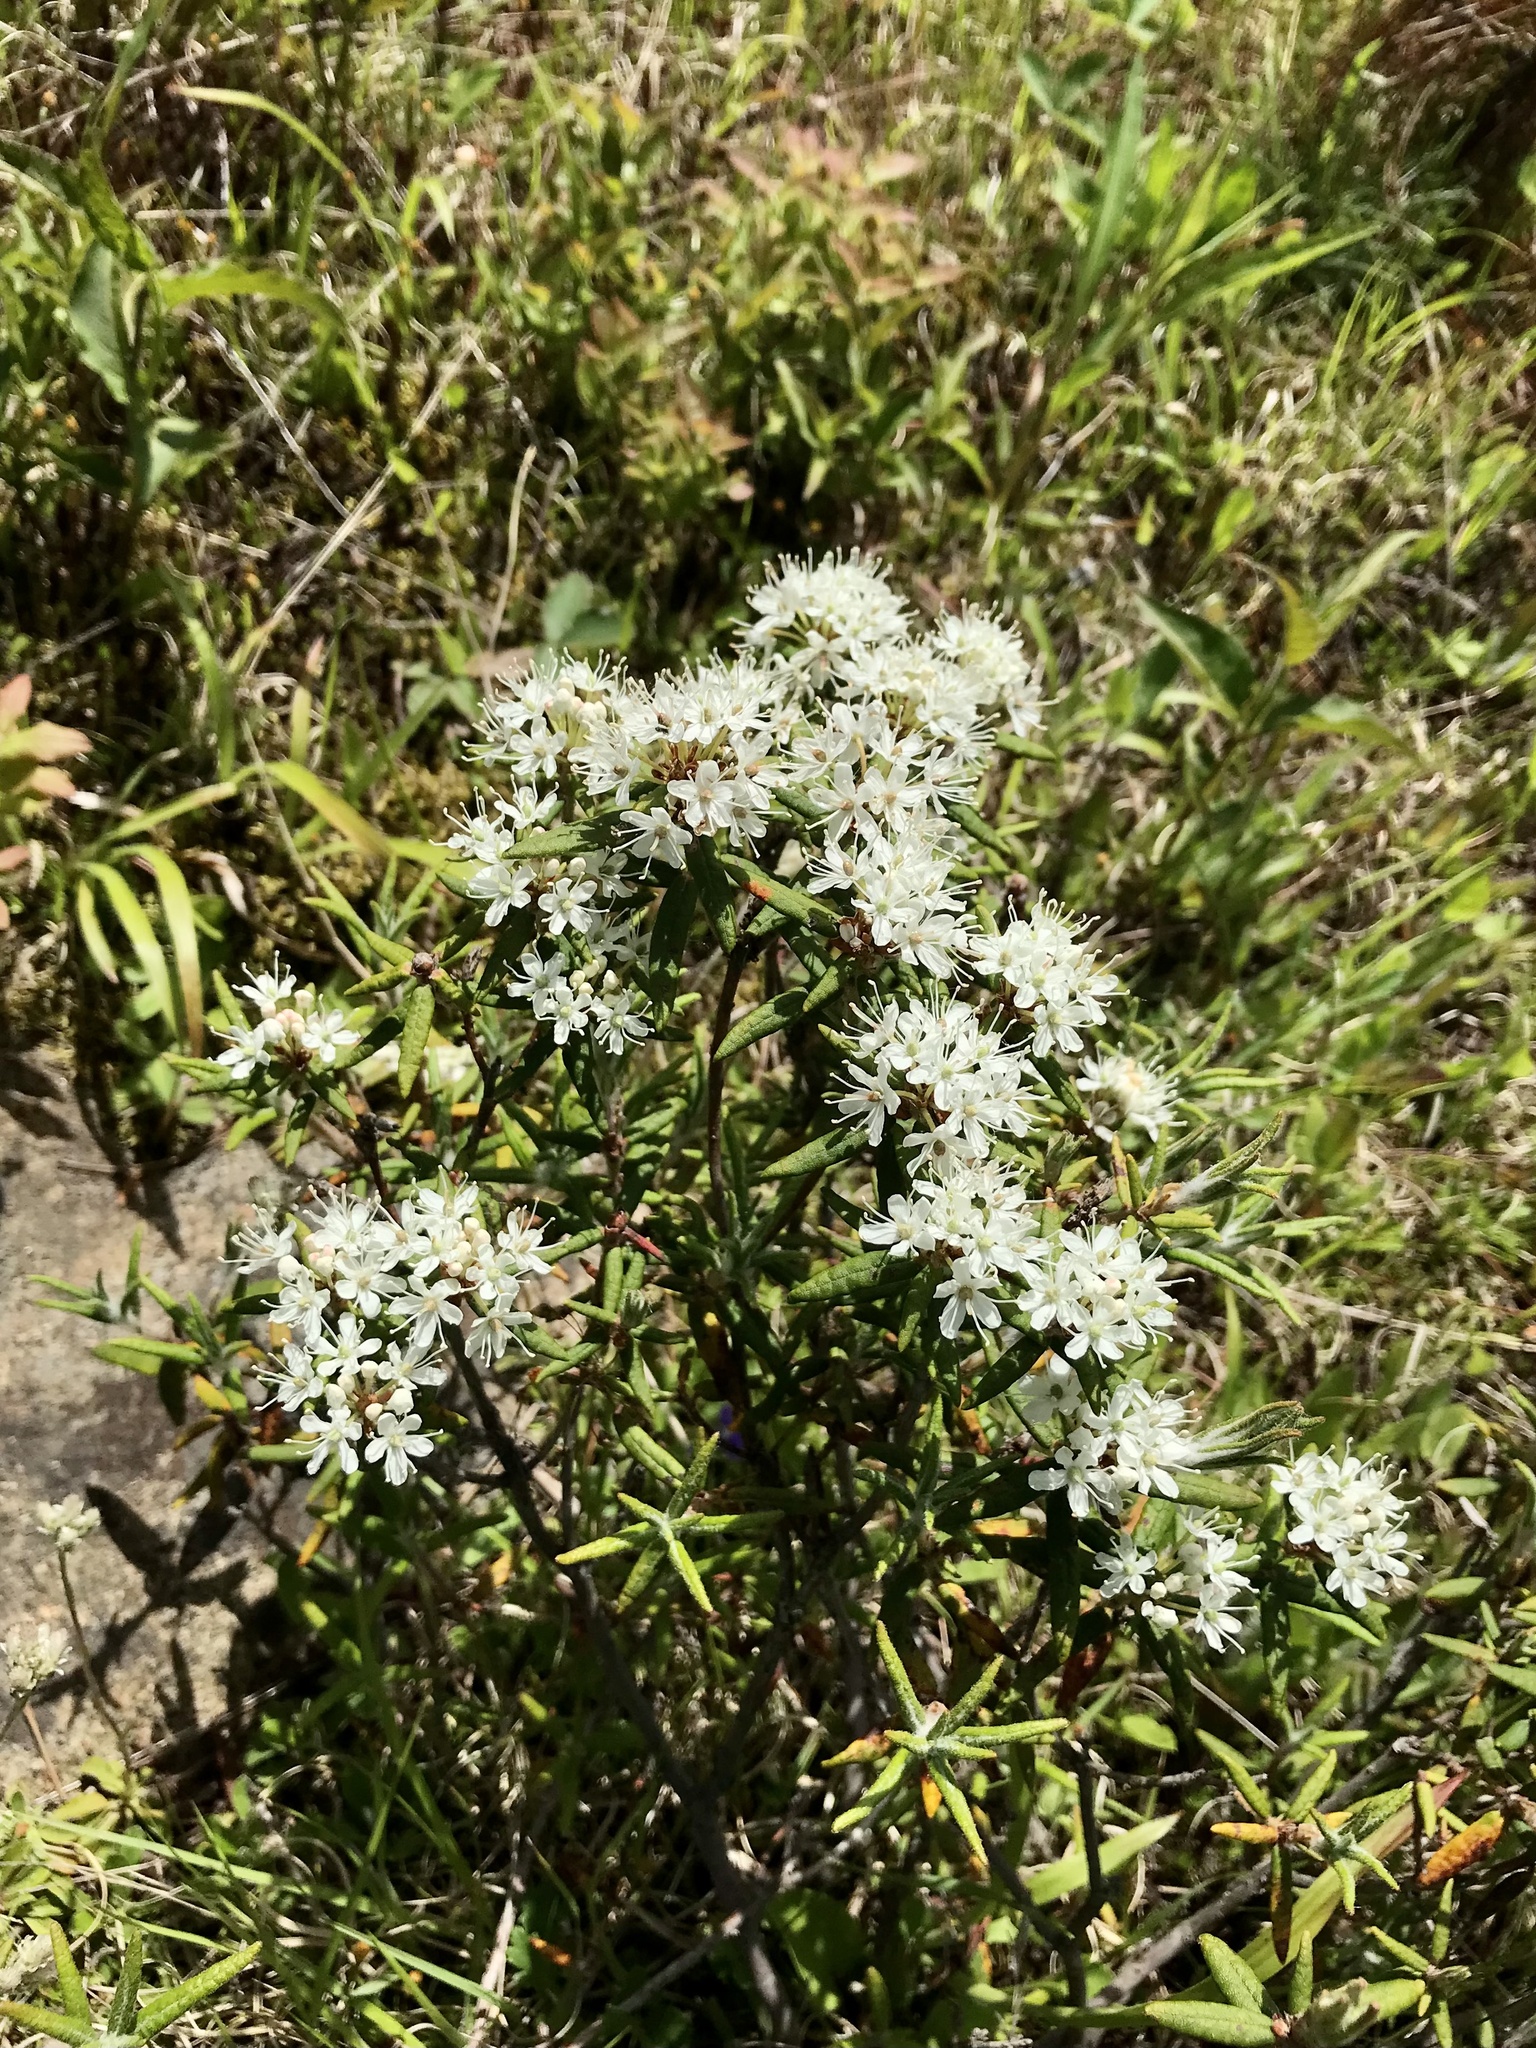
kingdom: Plantae
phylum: Tracheophyta
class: Magnoliopsida
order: Ericales
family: Ericaceae
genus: Rhododendron
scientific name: Rhododendron groenlandicum
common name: Bog labrador tea
